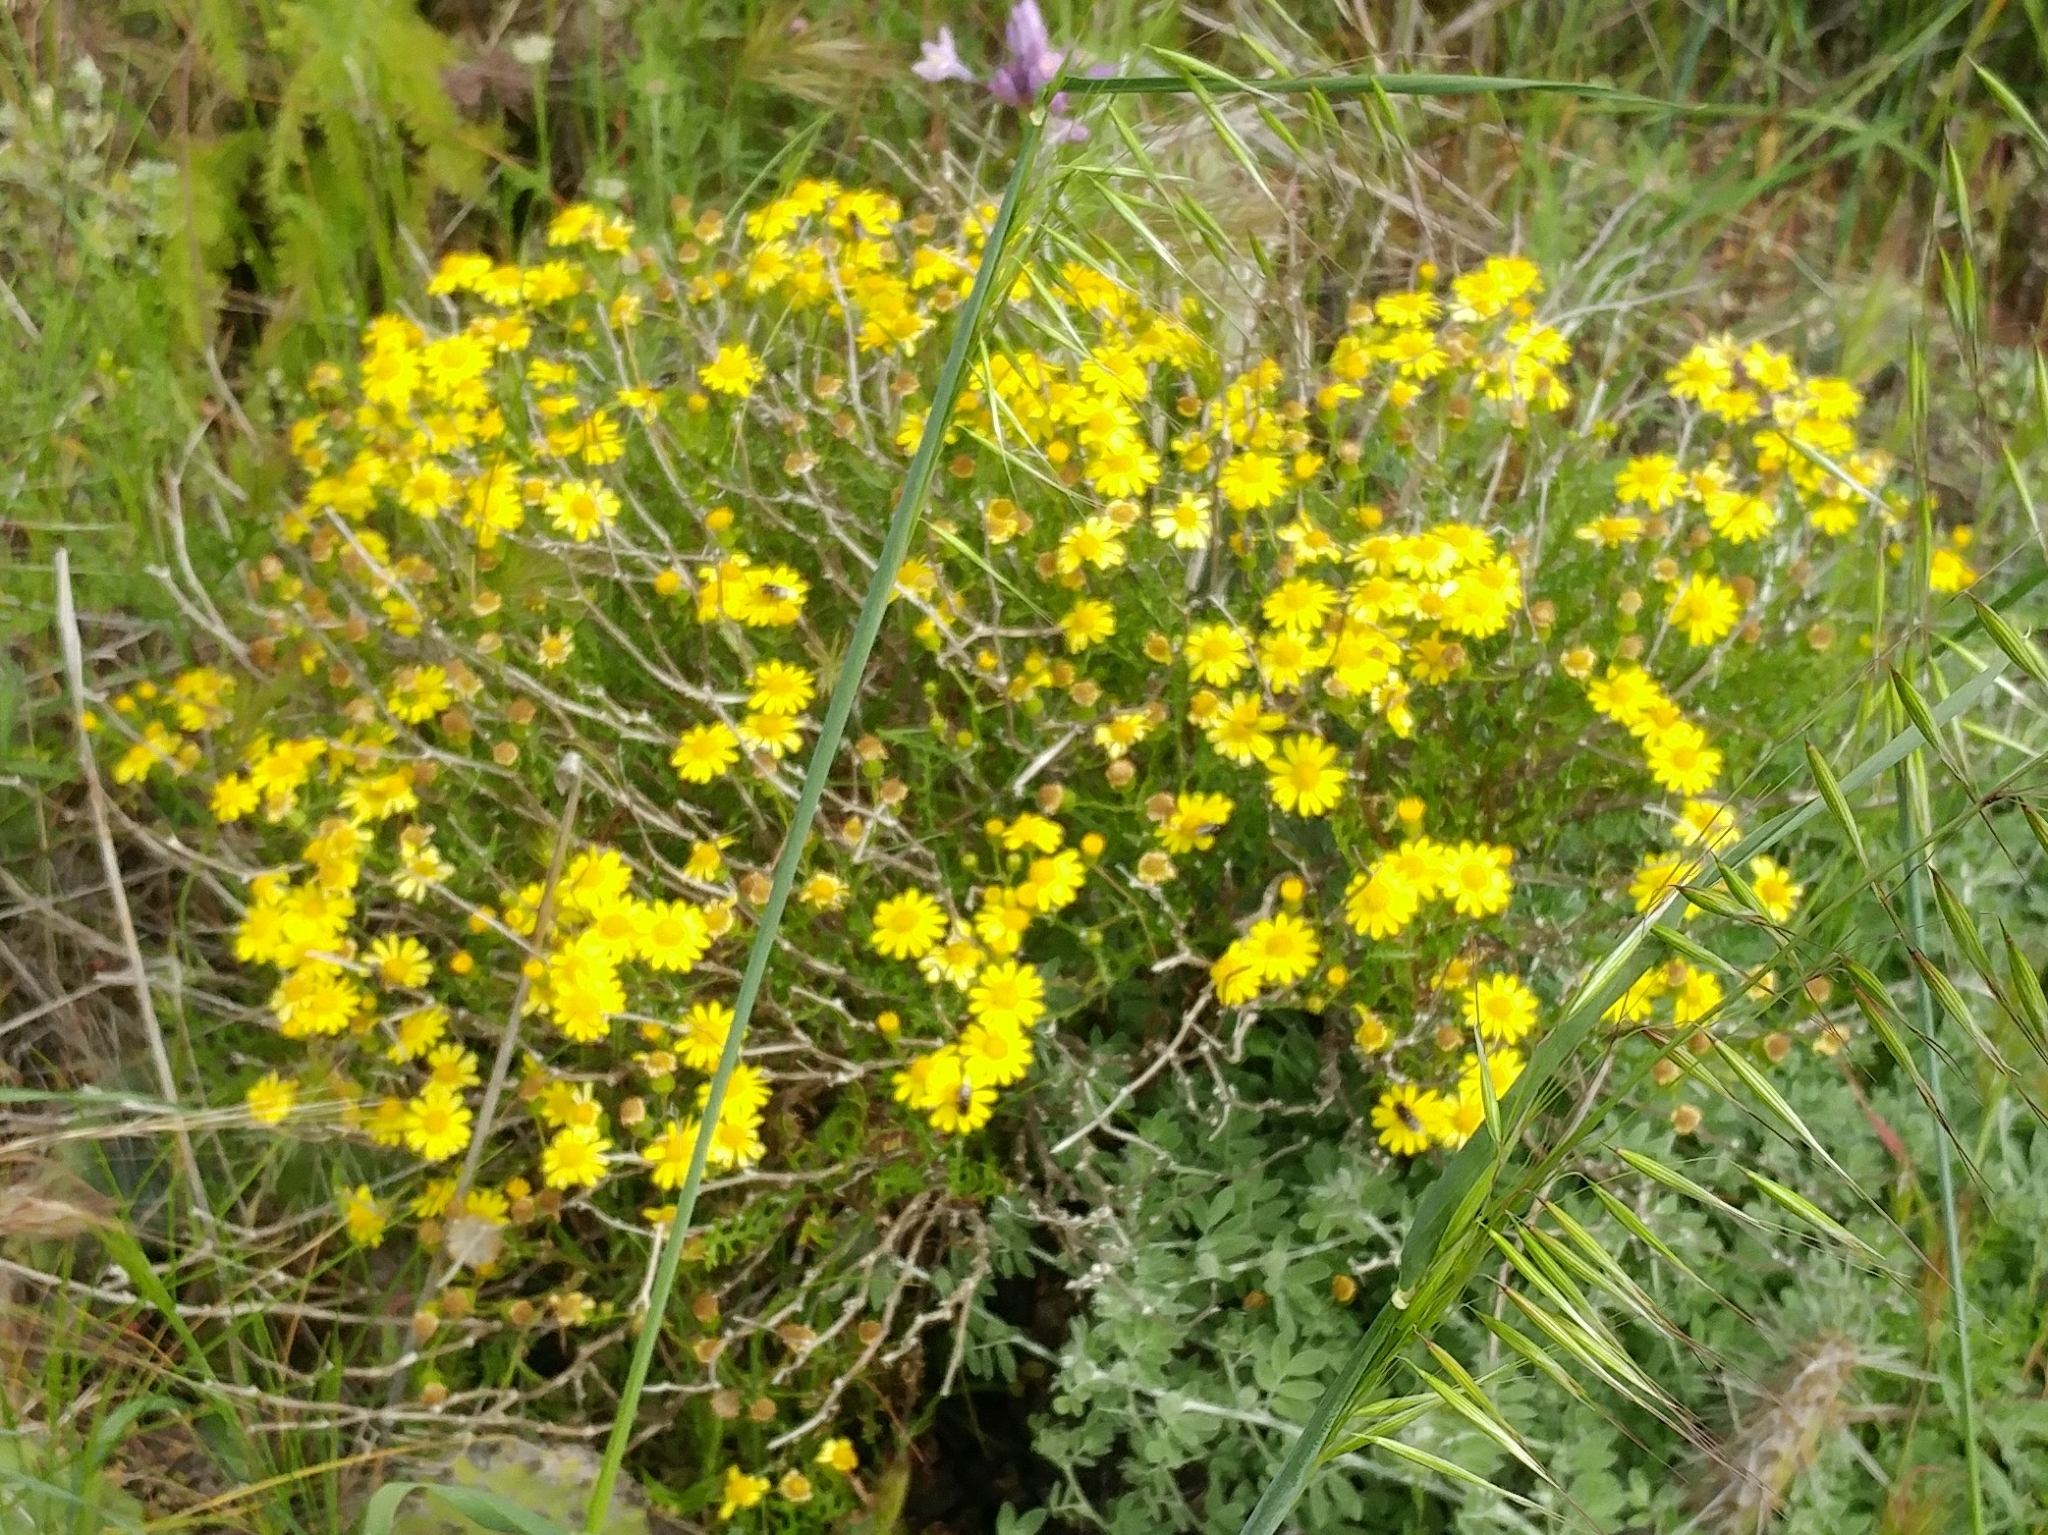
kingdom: Plantae
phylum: Tracheophyta
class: Magnoliopsida
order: Asterales
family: Asteraceae
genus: Senecio
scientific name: Senecio lyonii
